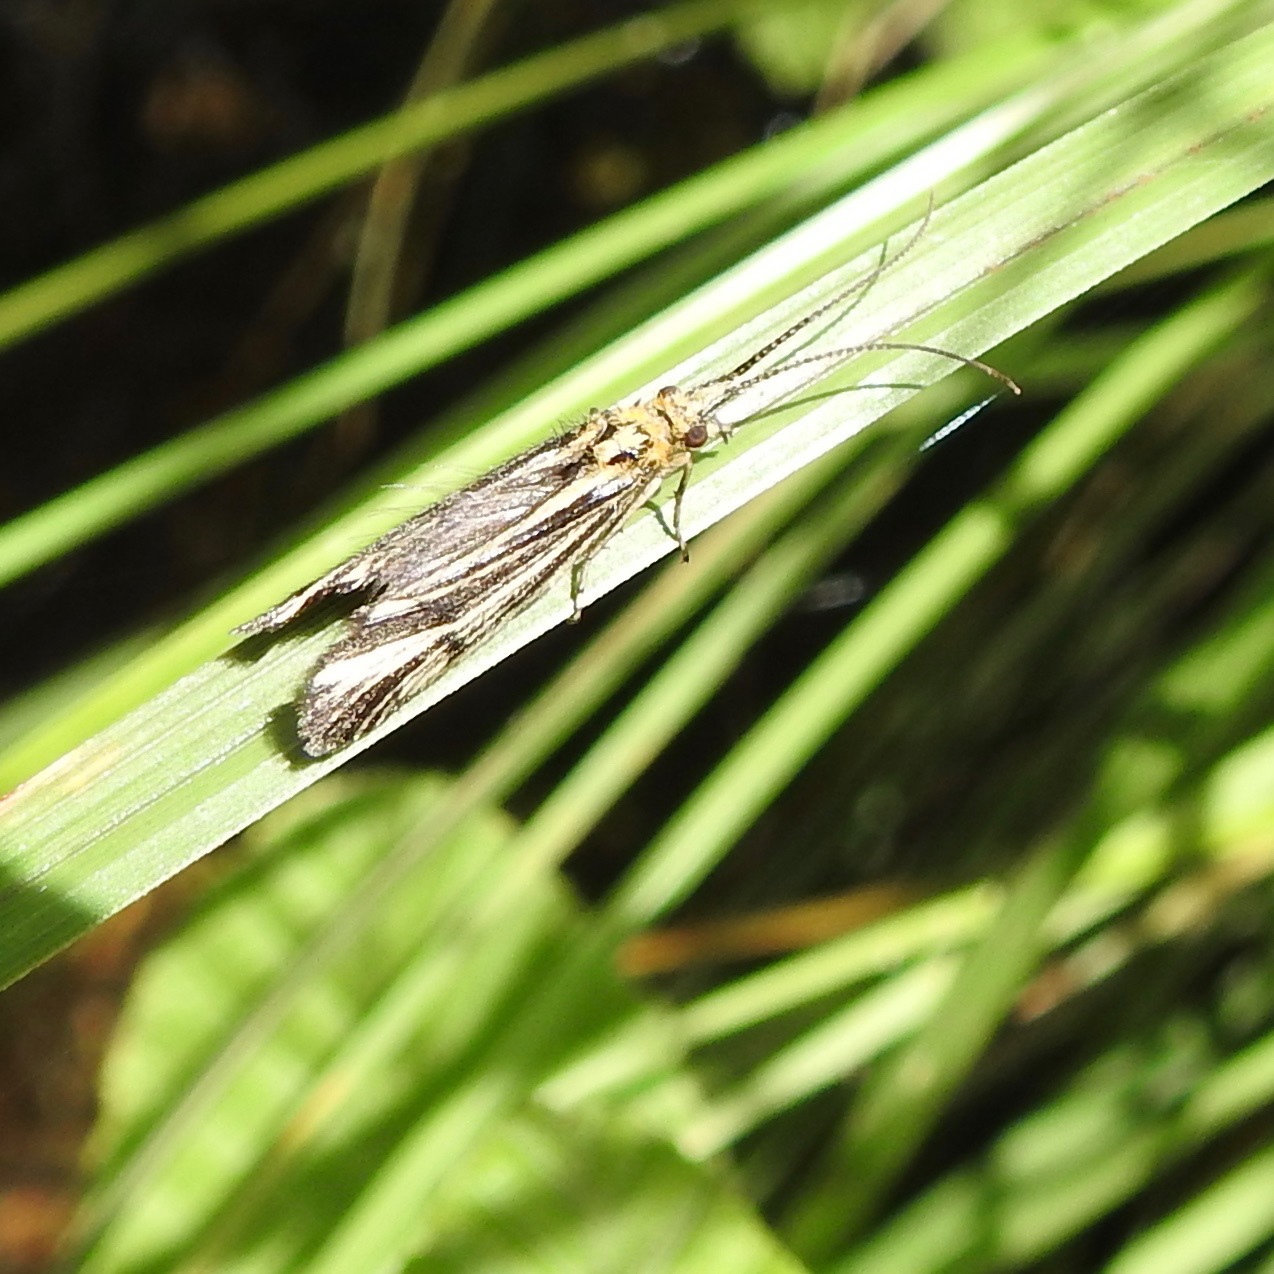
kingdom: Animalia
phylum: Arthropoda
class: Insecta
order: Trichoptera
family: Odontoceridae
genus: Nerophilus
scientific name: Nerophilus californicus
